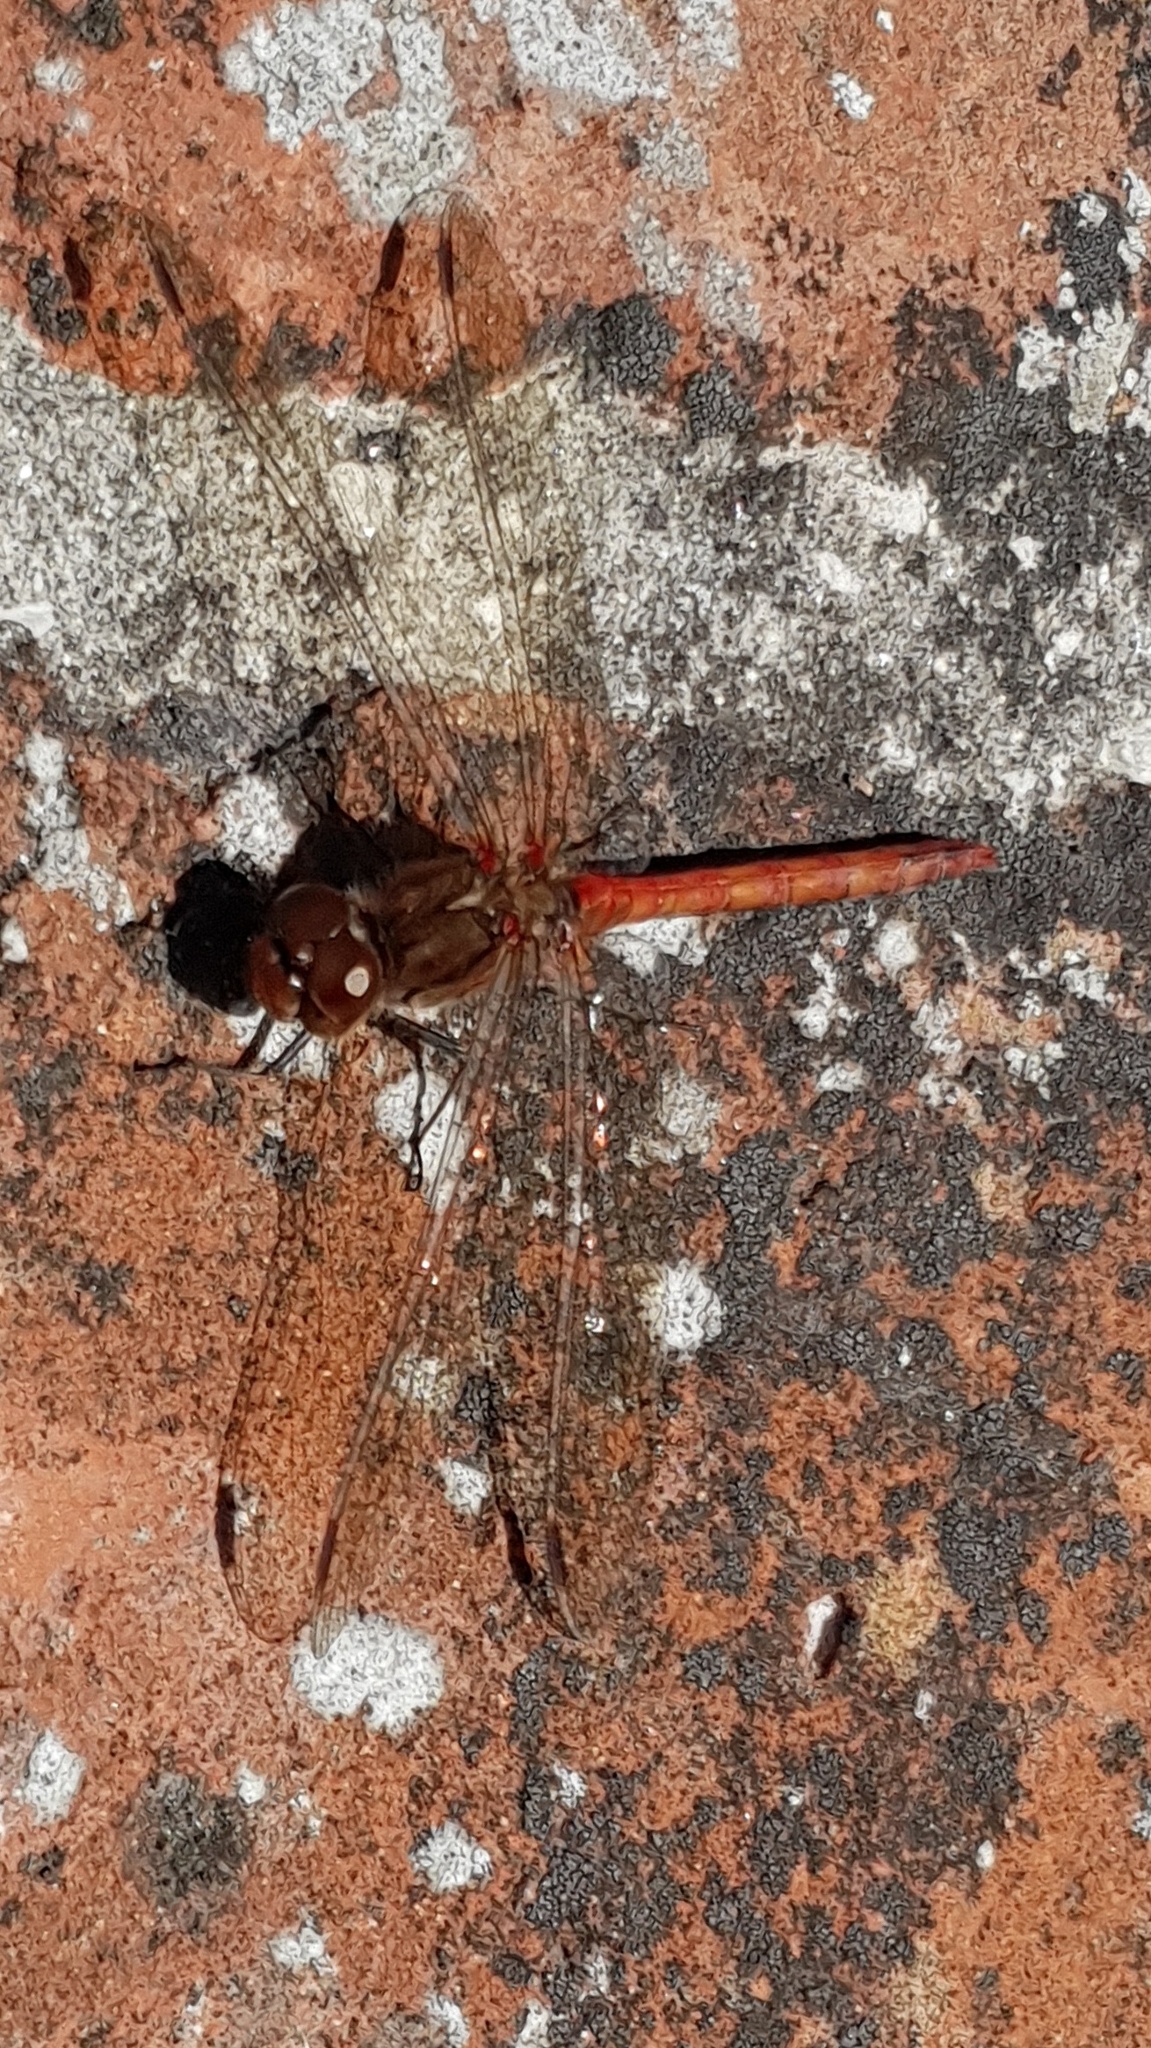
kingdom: Animalia
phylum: Arthropoda
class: Insecta
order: Odonata
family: Libellulidae
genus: Sympetrum
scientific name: Sympetrum striolatum
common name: Common darter
